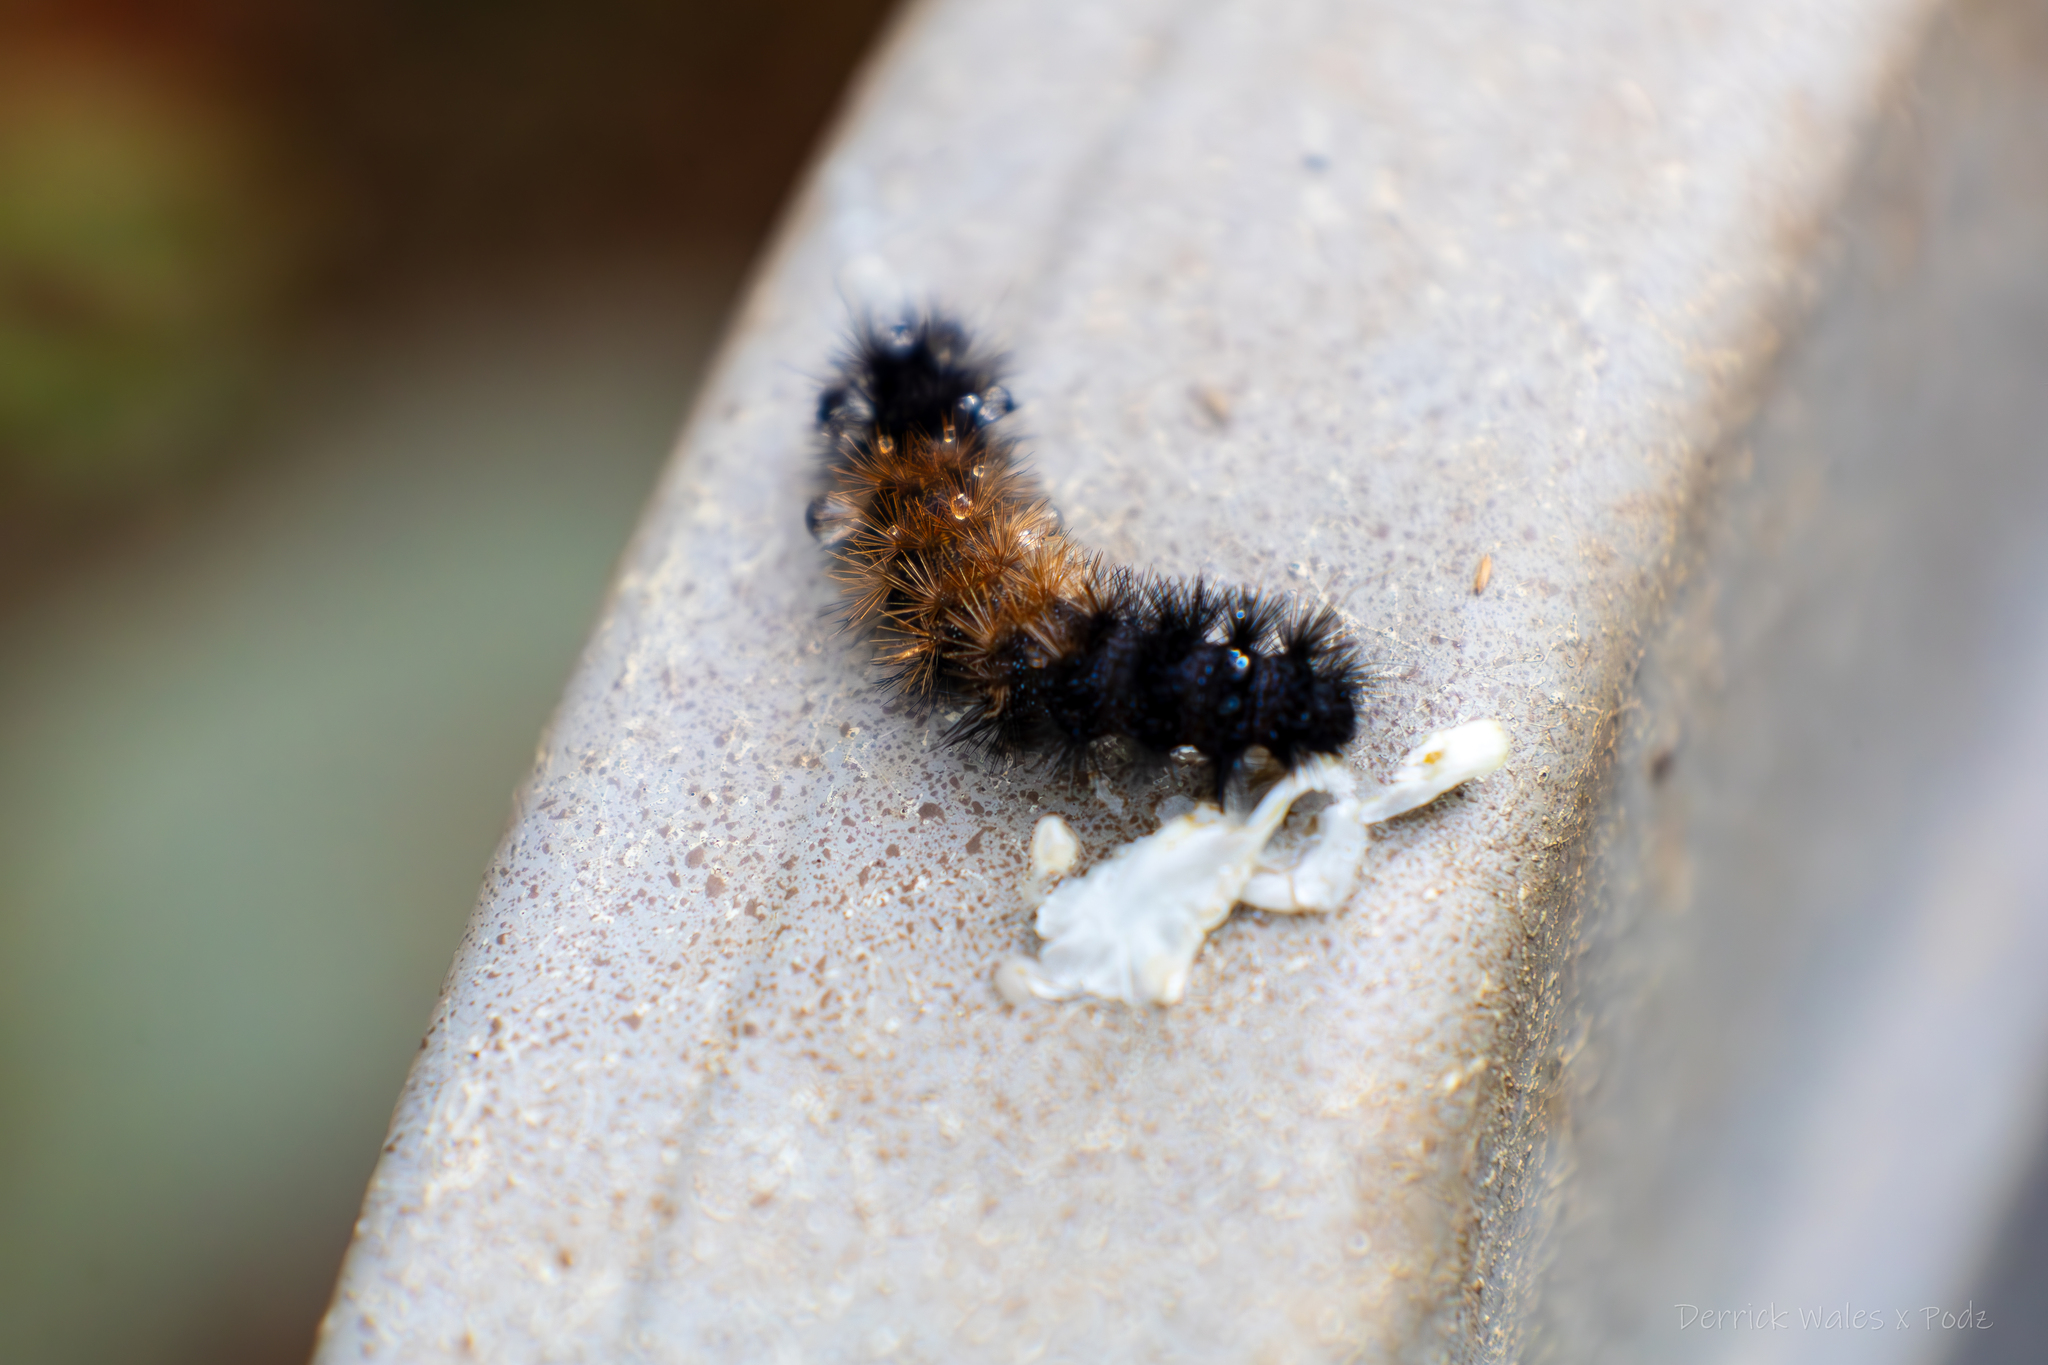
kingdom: Animalia
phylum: Arthropoda
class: Insecta
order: Lepidoptera
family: Erebidae
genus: Pyrrharctia
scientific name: Pyrrharctia isabella
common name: Isabella tiger moth
